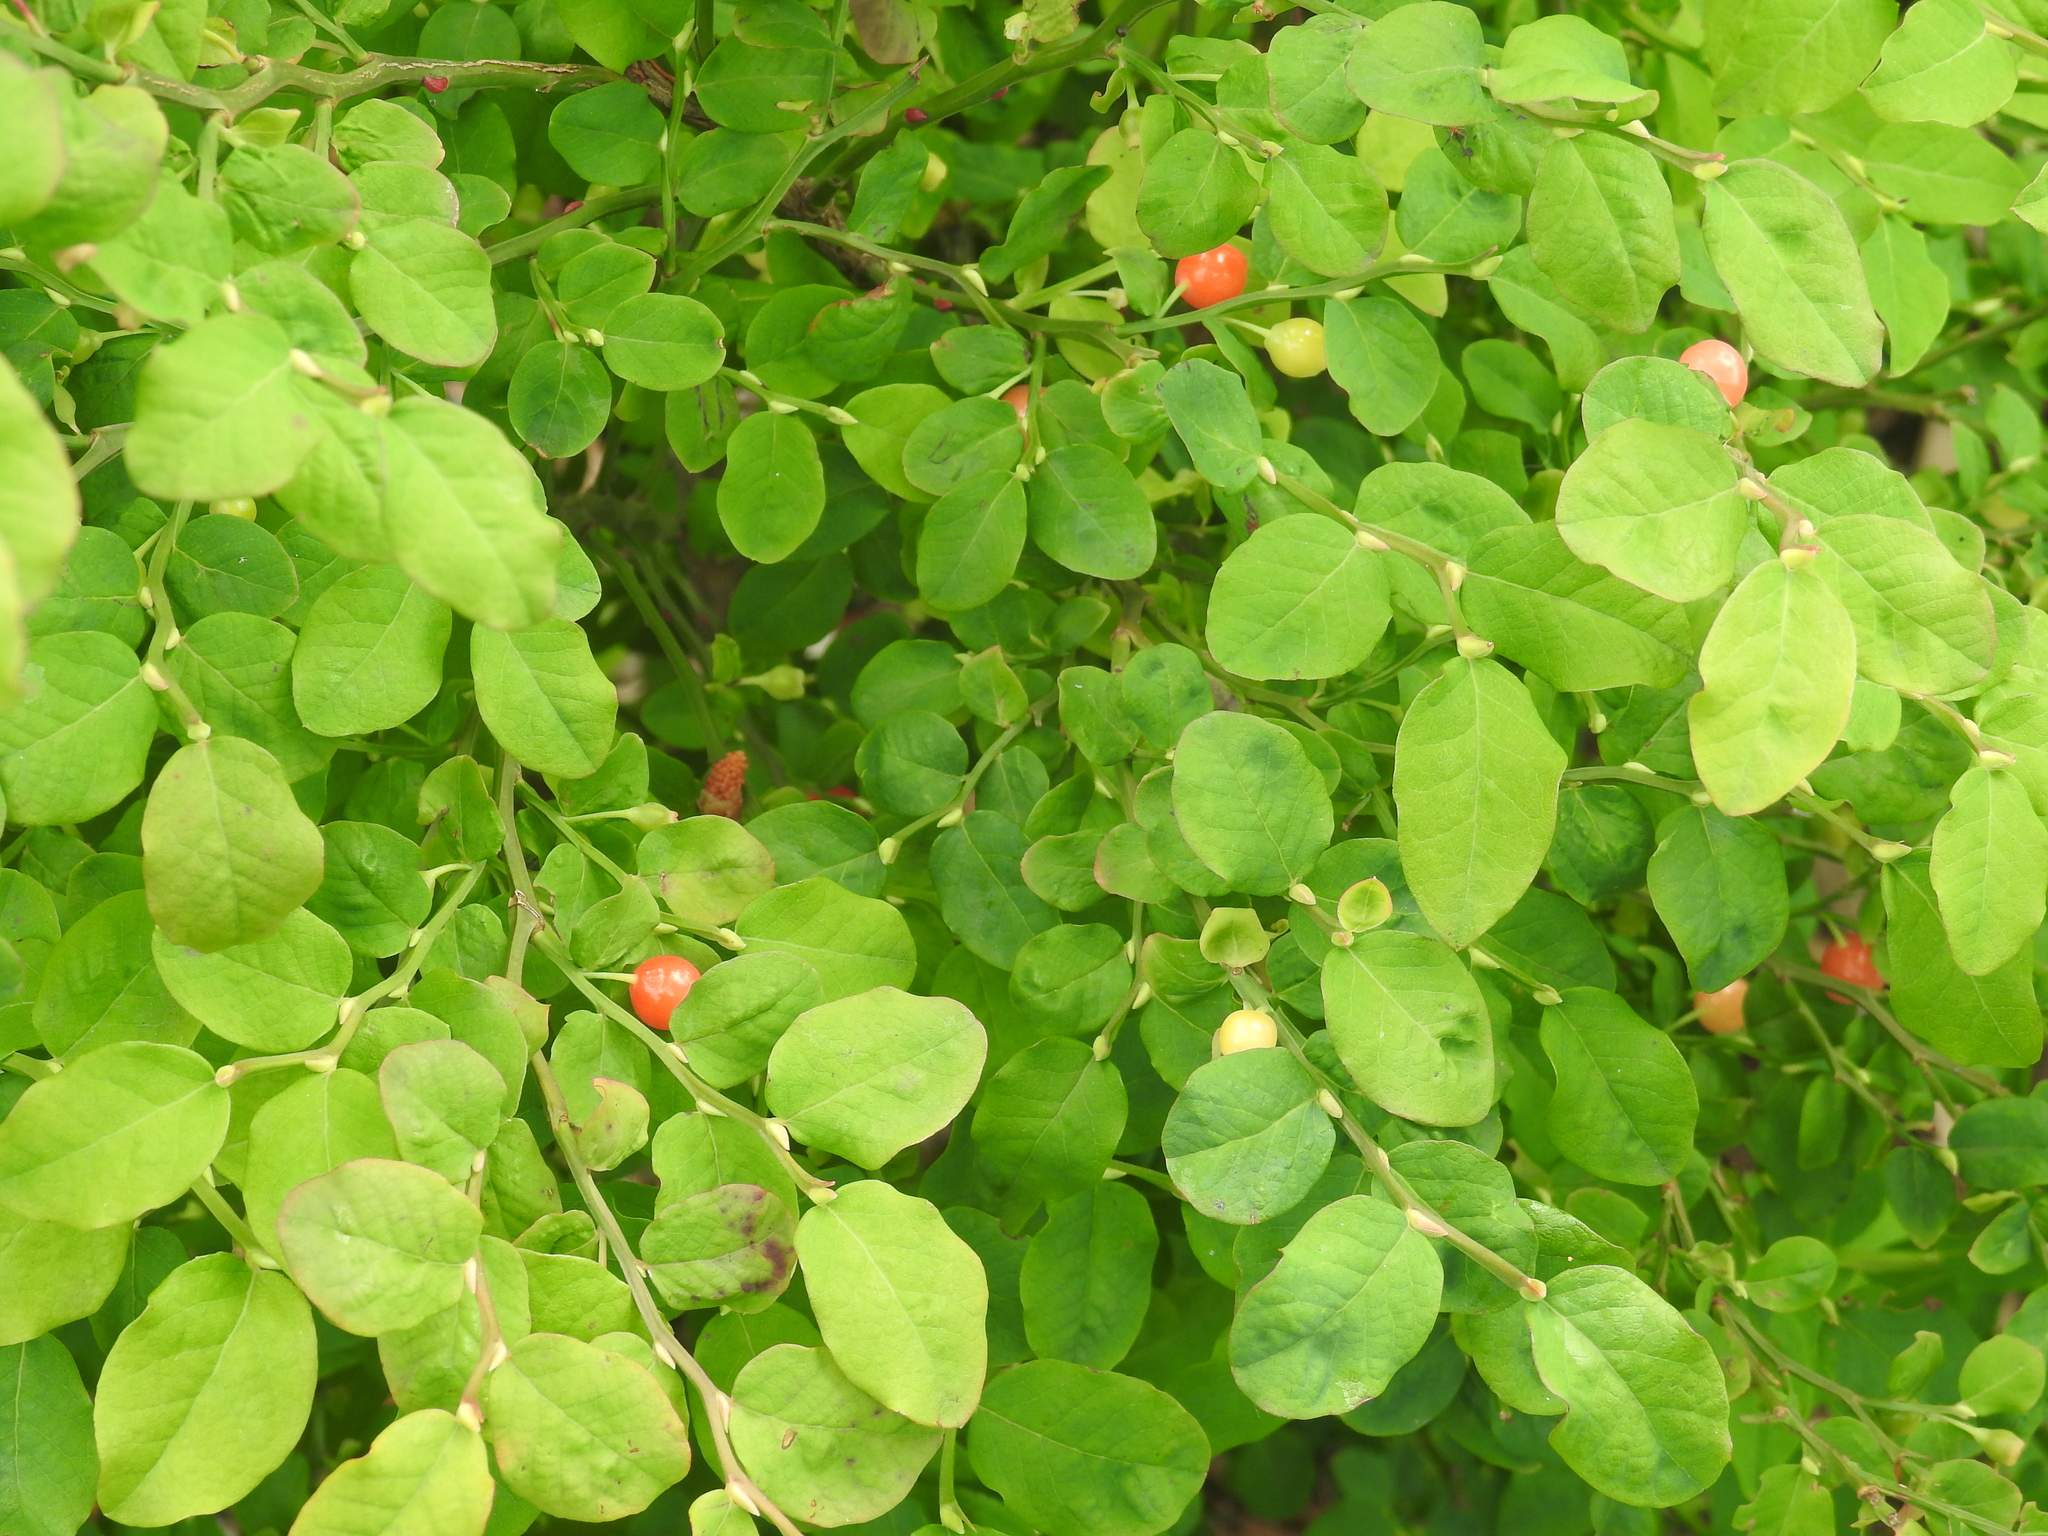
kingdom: Plantae
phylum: Tracheophyta
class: Magnoliopsida
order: Ericales
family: Ericaceae
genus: Vaccinium
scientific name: Vaccinium parvifolium
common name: Red-huckleberry
